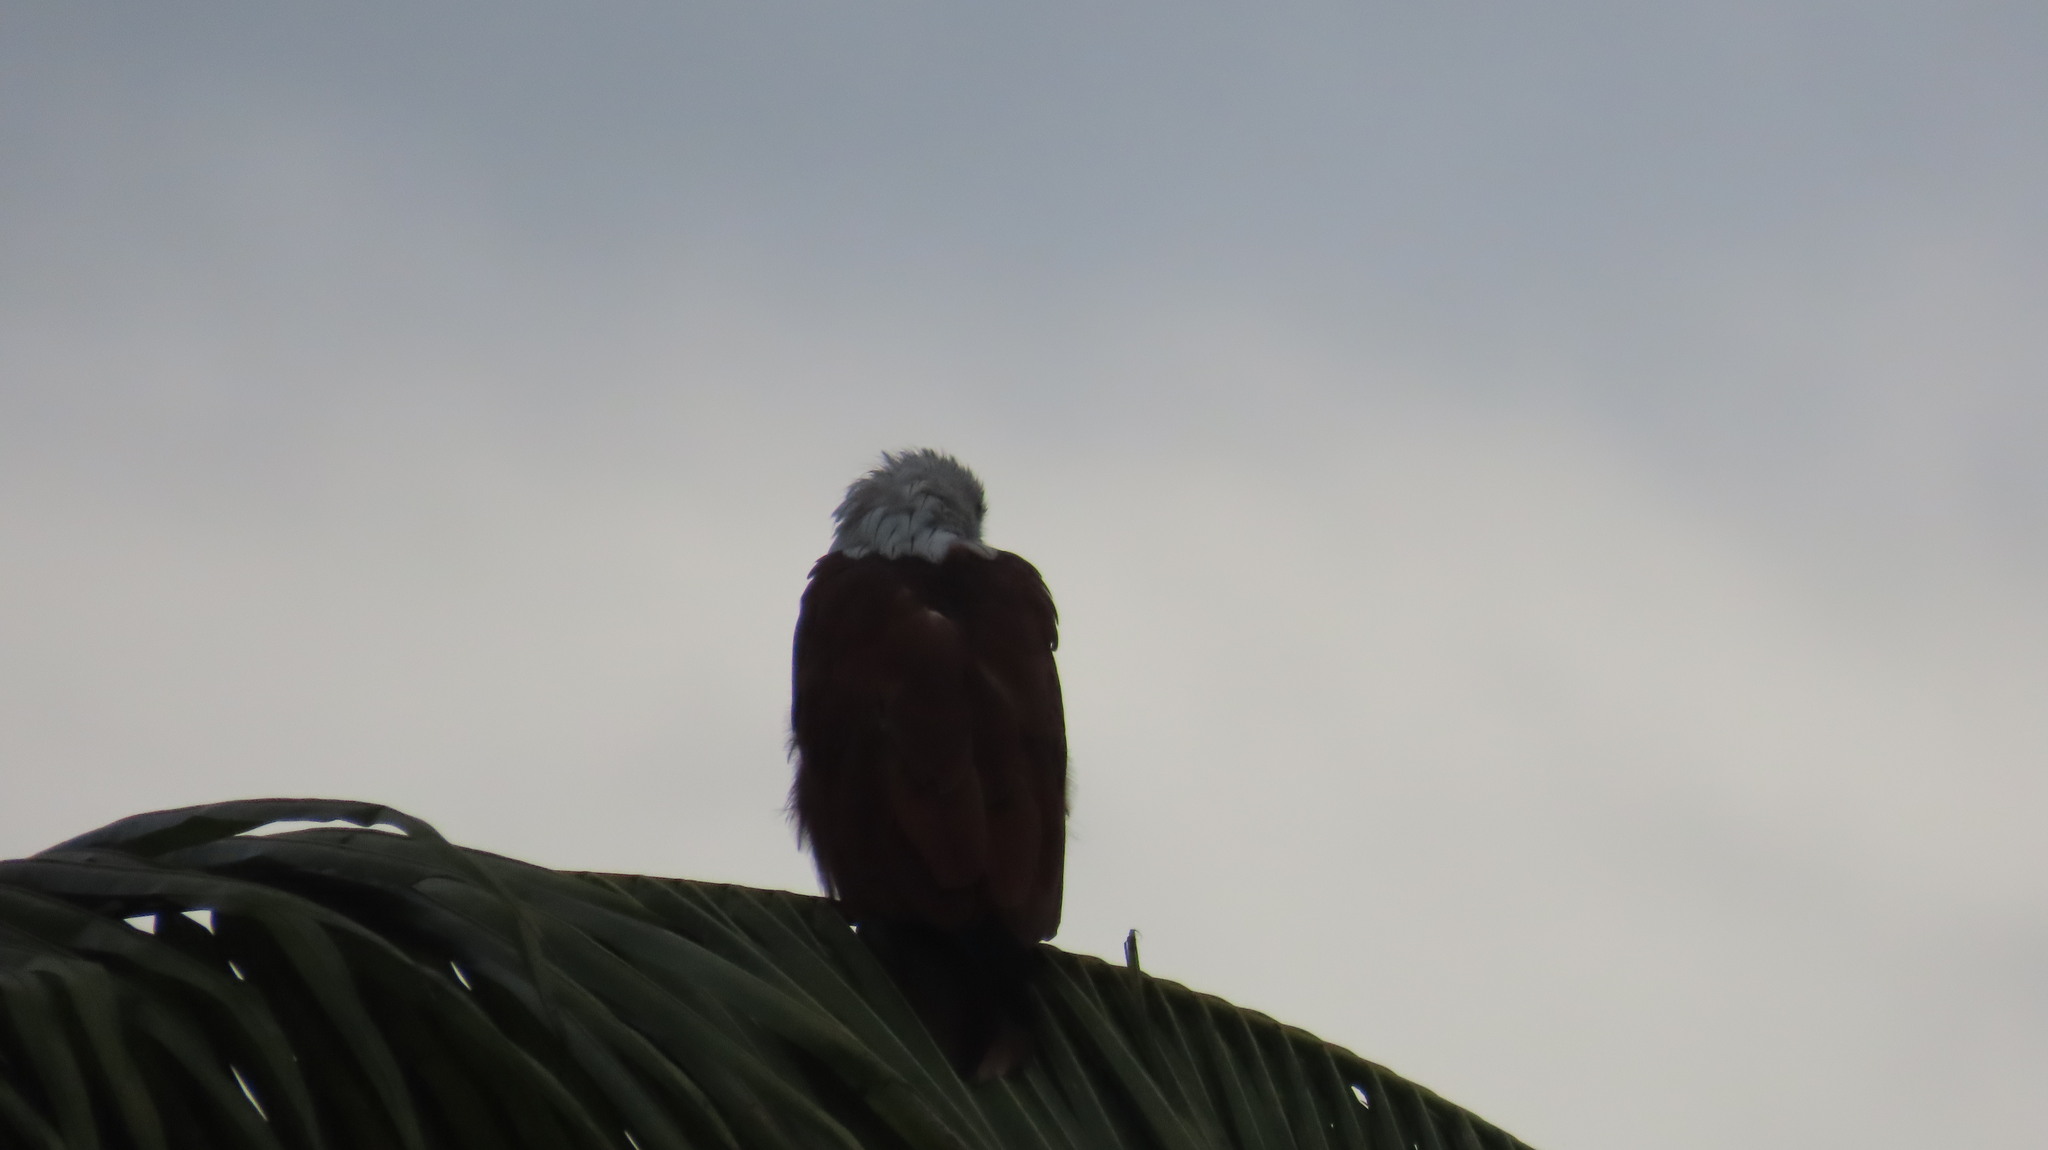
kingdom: Animalia
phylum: Chordata
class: Aves
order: Accipitriformes
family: Accipitridae
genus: Haliastur
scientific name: Haliastur indus
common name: Brahminy kite
